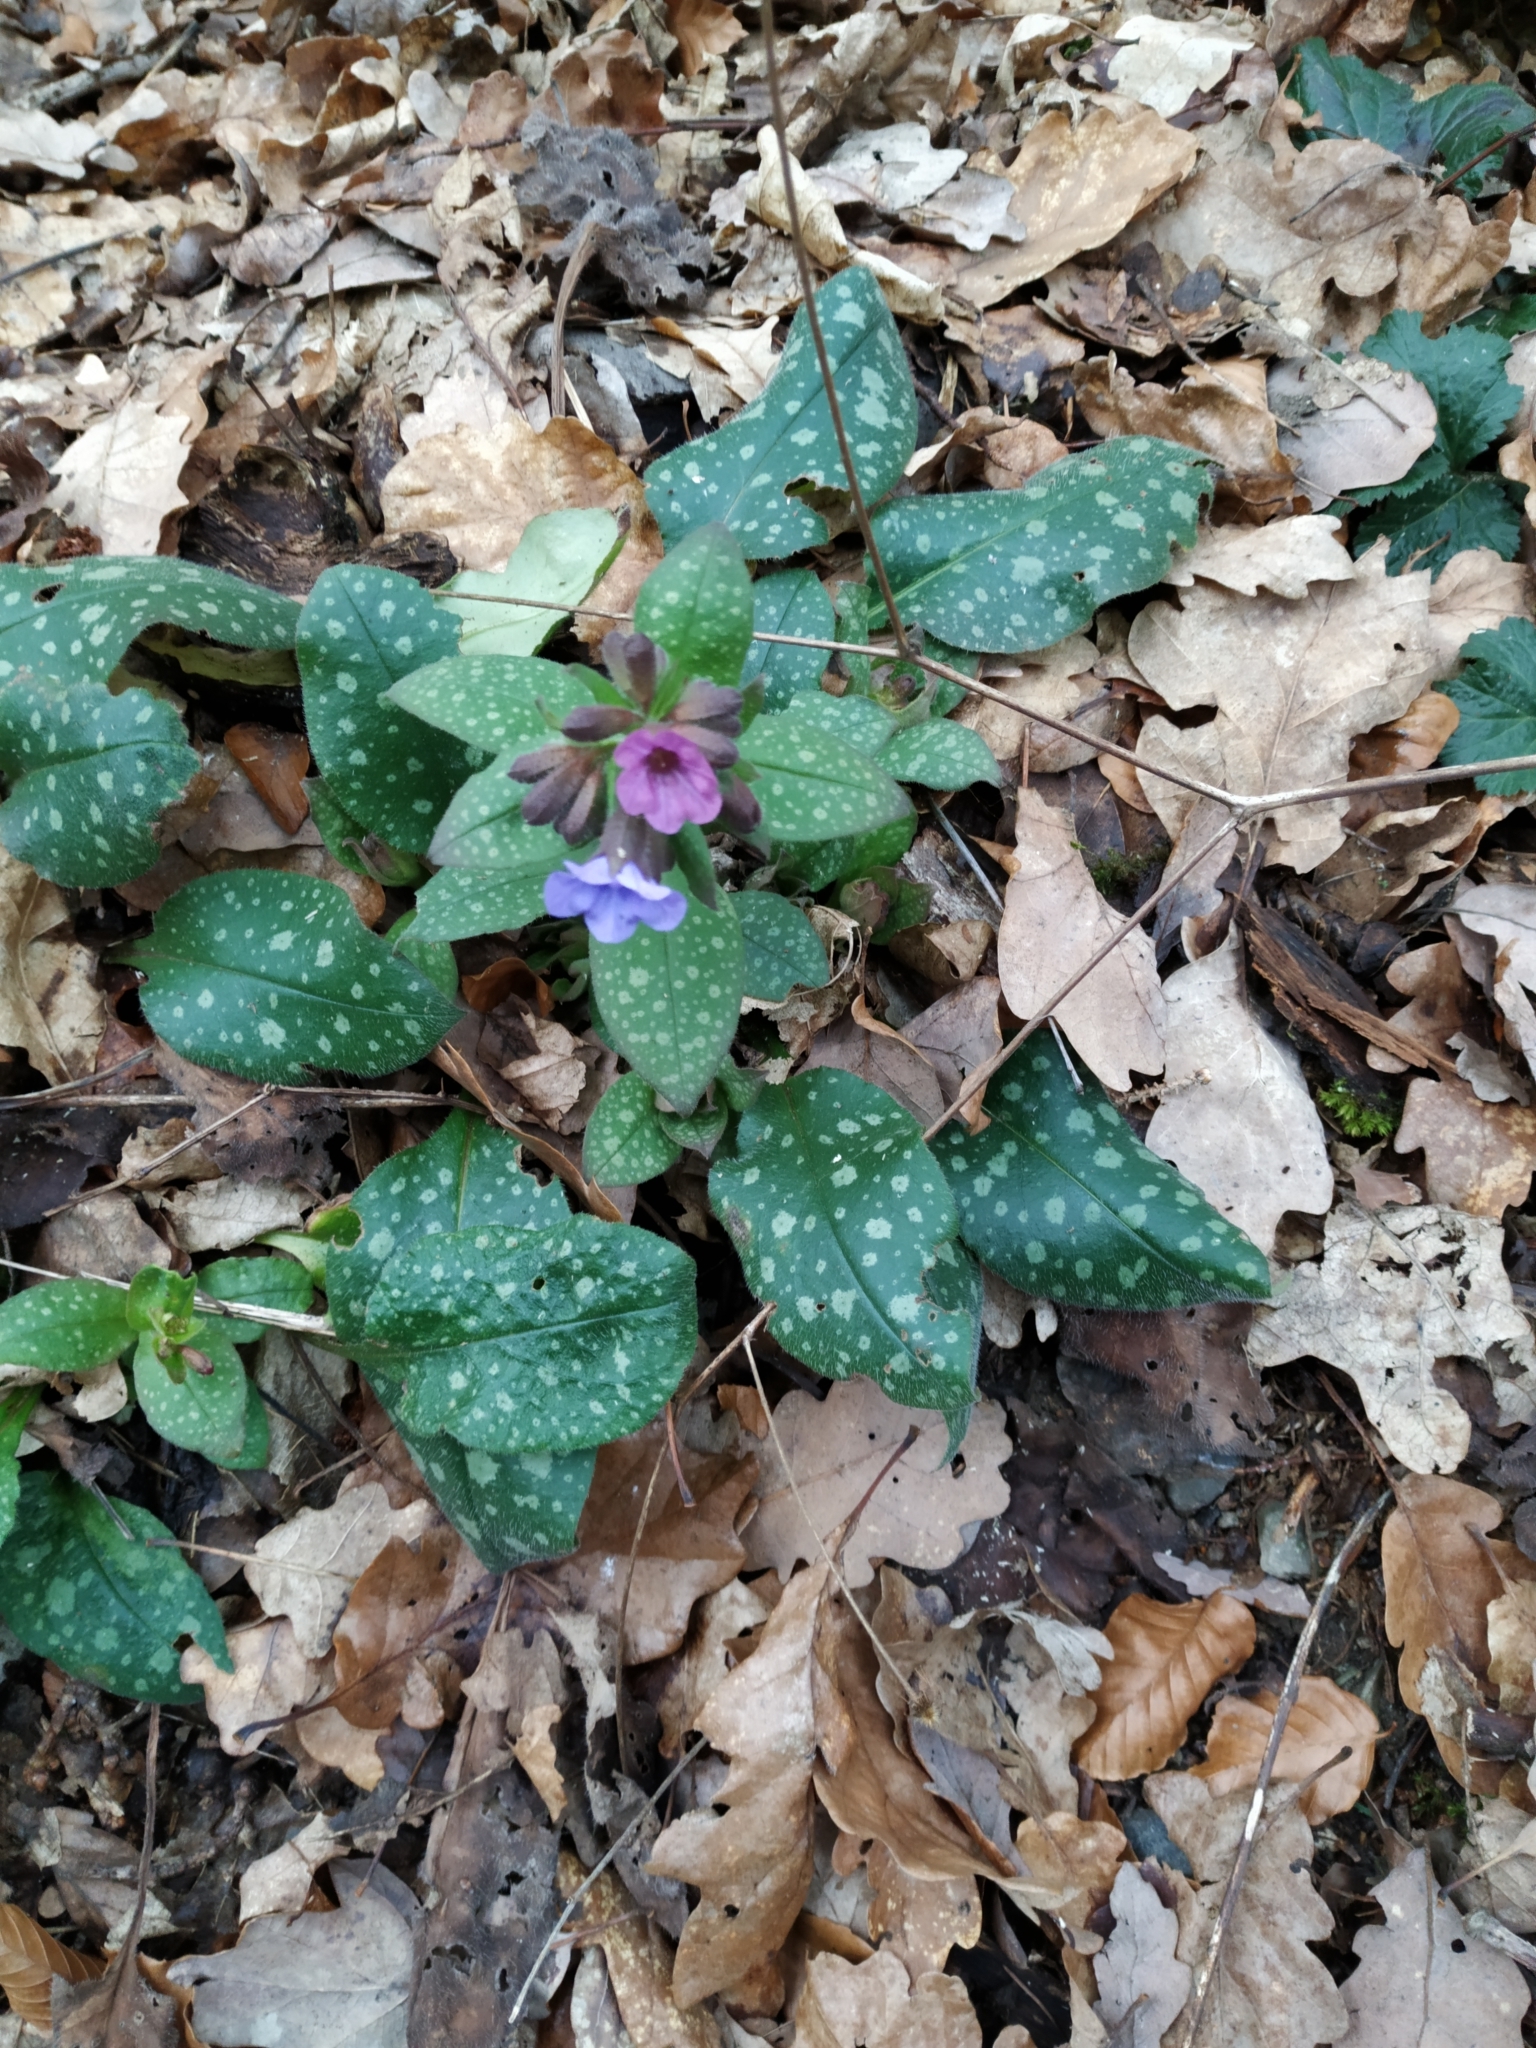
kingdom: Plantae
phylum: Tracheophyta
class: Magnoliopsida
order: Boraginales
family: Boraginaceae
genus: Pulmonaria
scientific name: Pulmonaria officinalis
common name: Lungwort
